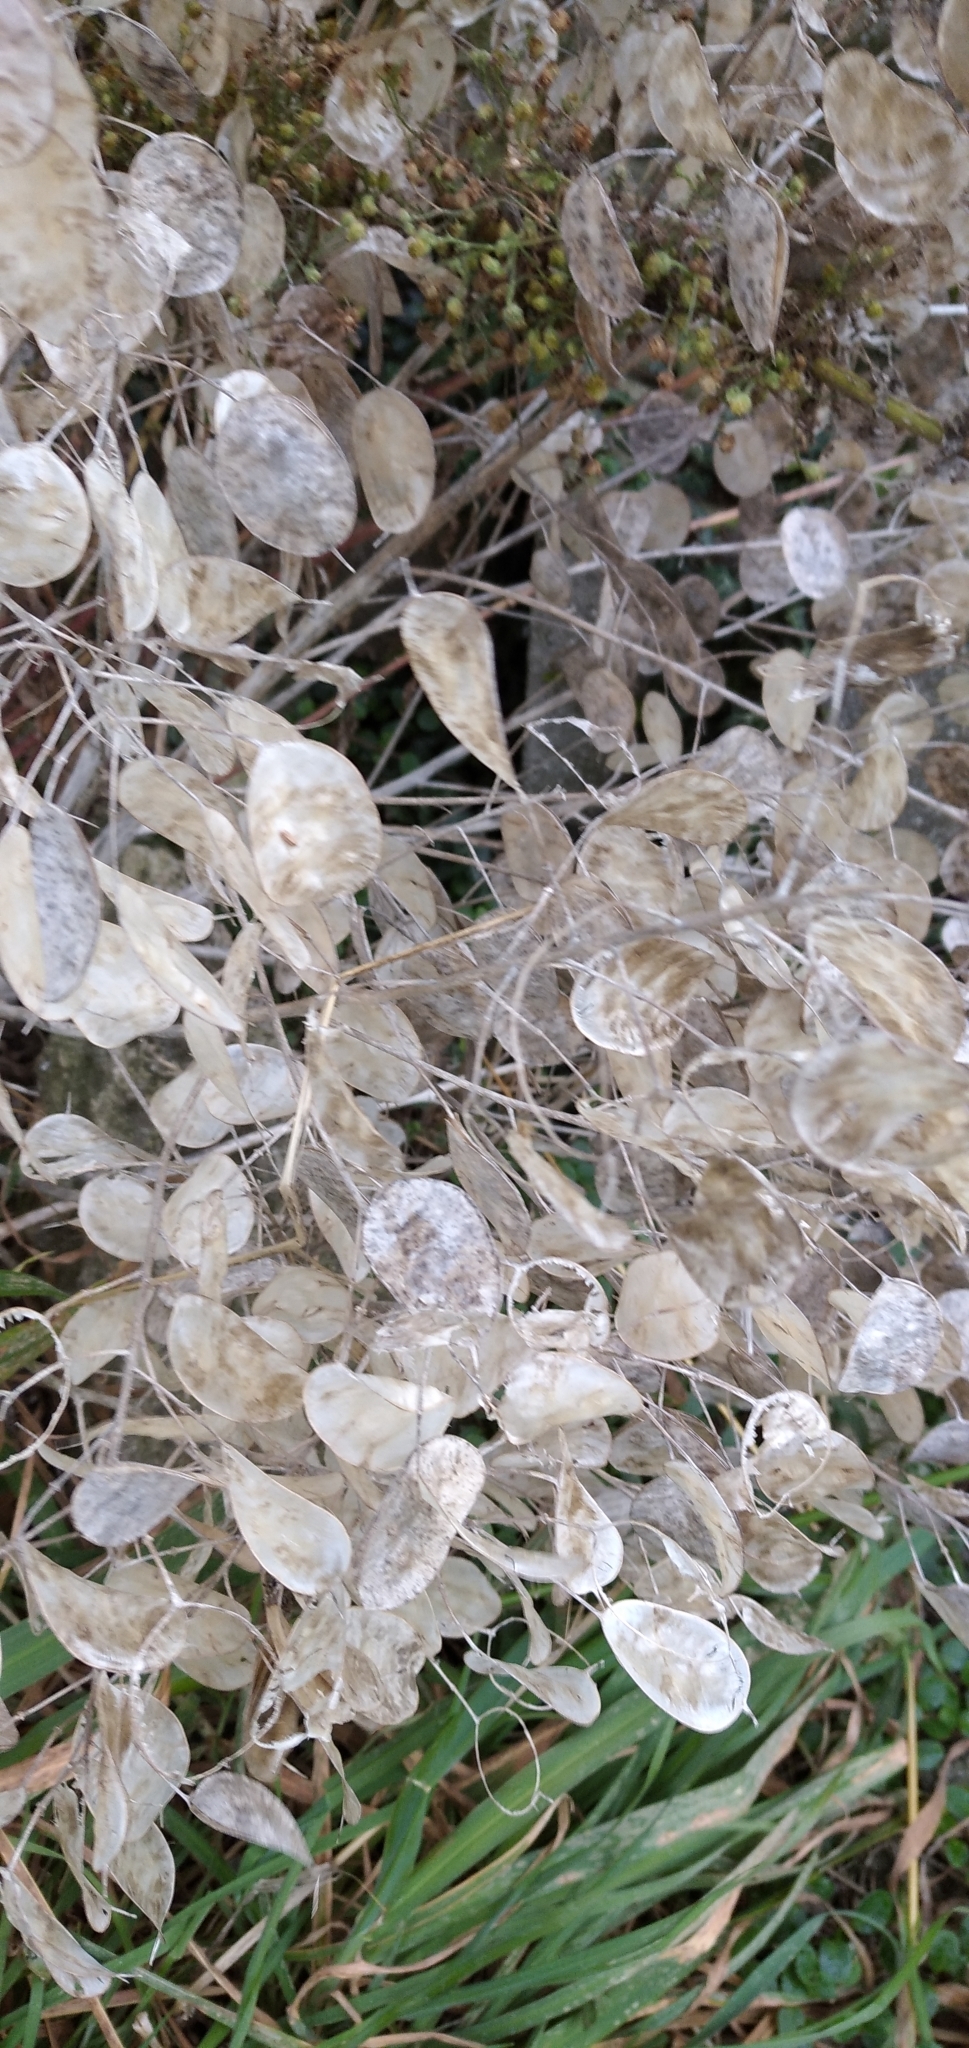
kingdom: Plantae
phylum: Tracheophyta
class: Magnoliopsida
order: Brassicales
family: Brassicaceae
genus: Lunaria
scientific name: Lunaria annua
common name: Honesty
